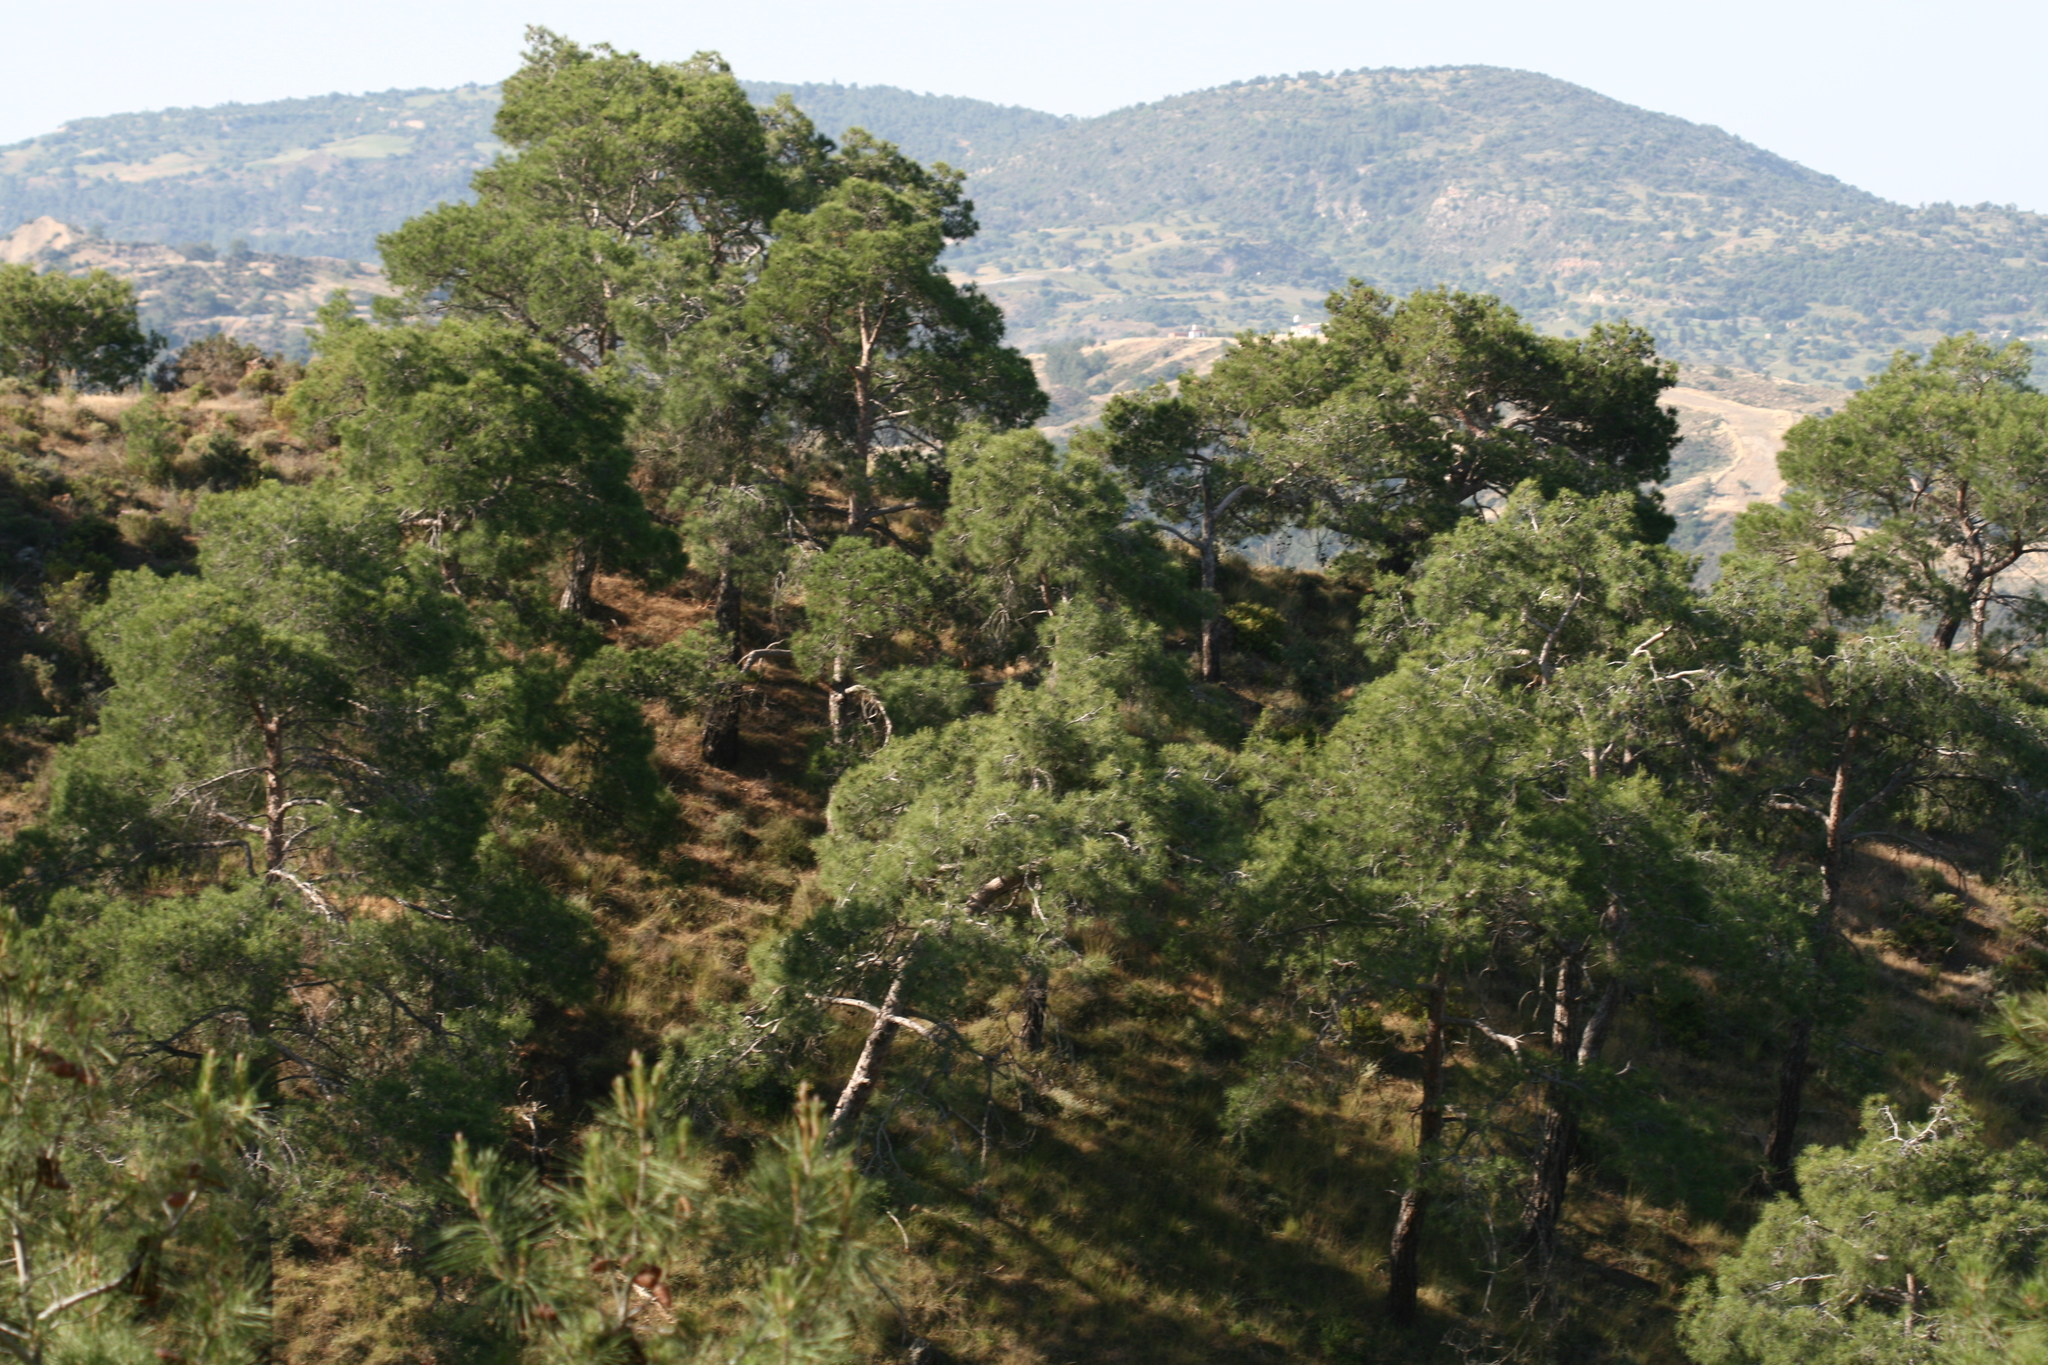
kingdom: Plantae
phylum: Tracheophyta
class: Pinopsida
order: Pinales
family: Pinaceae
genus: Pinus
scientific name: Pinus brutia
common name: Turkish pine
